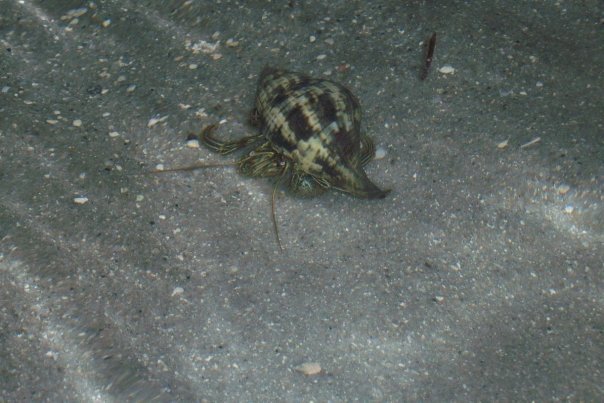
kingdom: Animalia
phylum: Arthropoda
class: Malacostraca
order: Decapoda
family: Diogenidae
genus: Clibanarius
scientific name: Clibanarius vittatus
